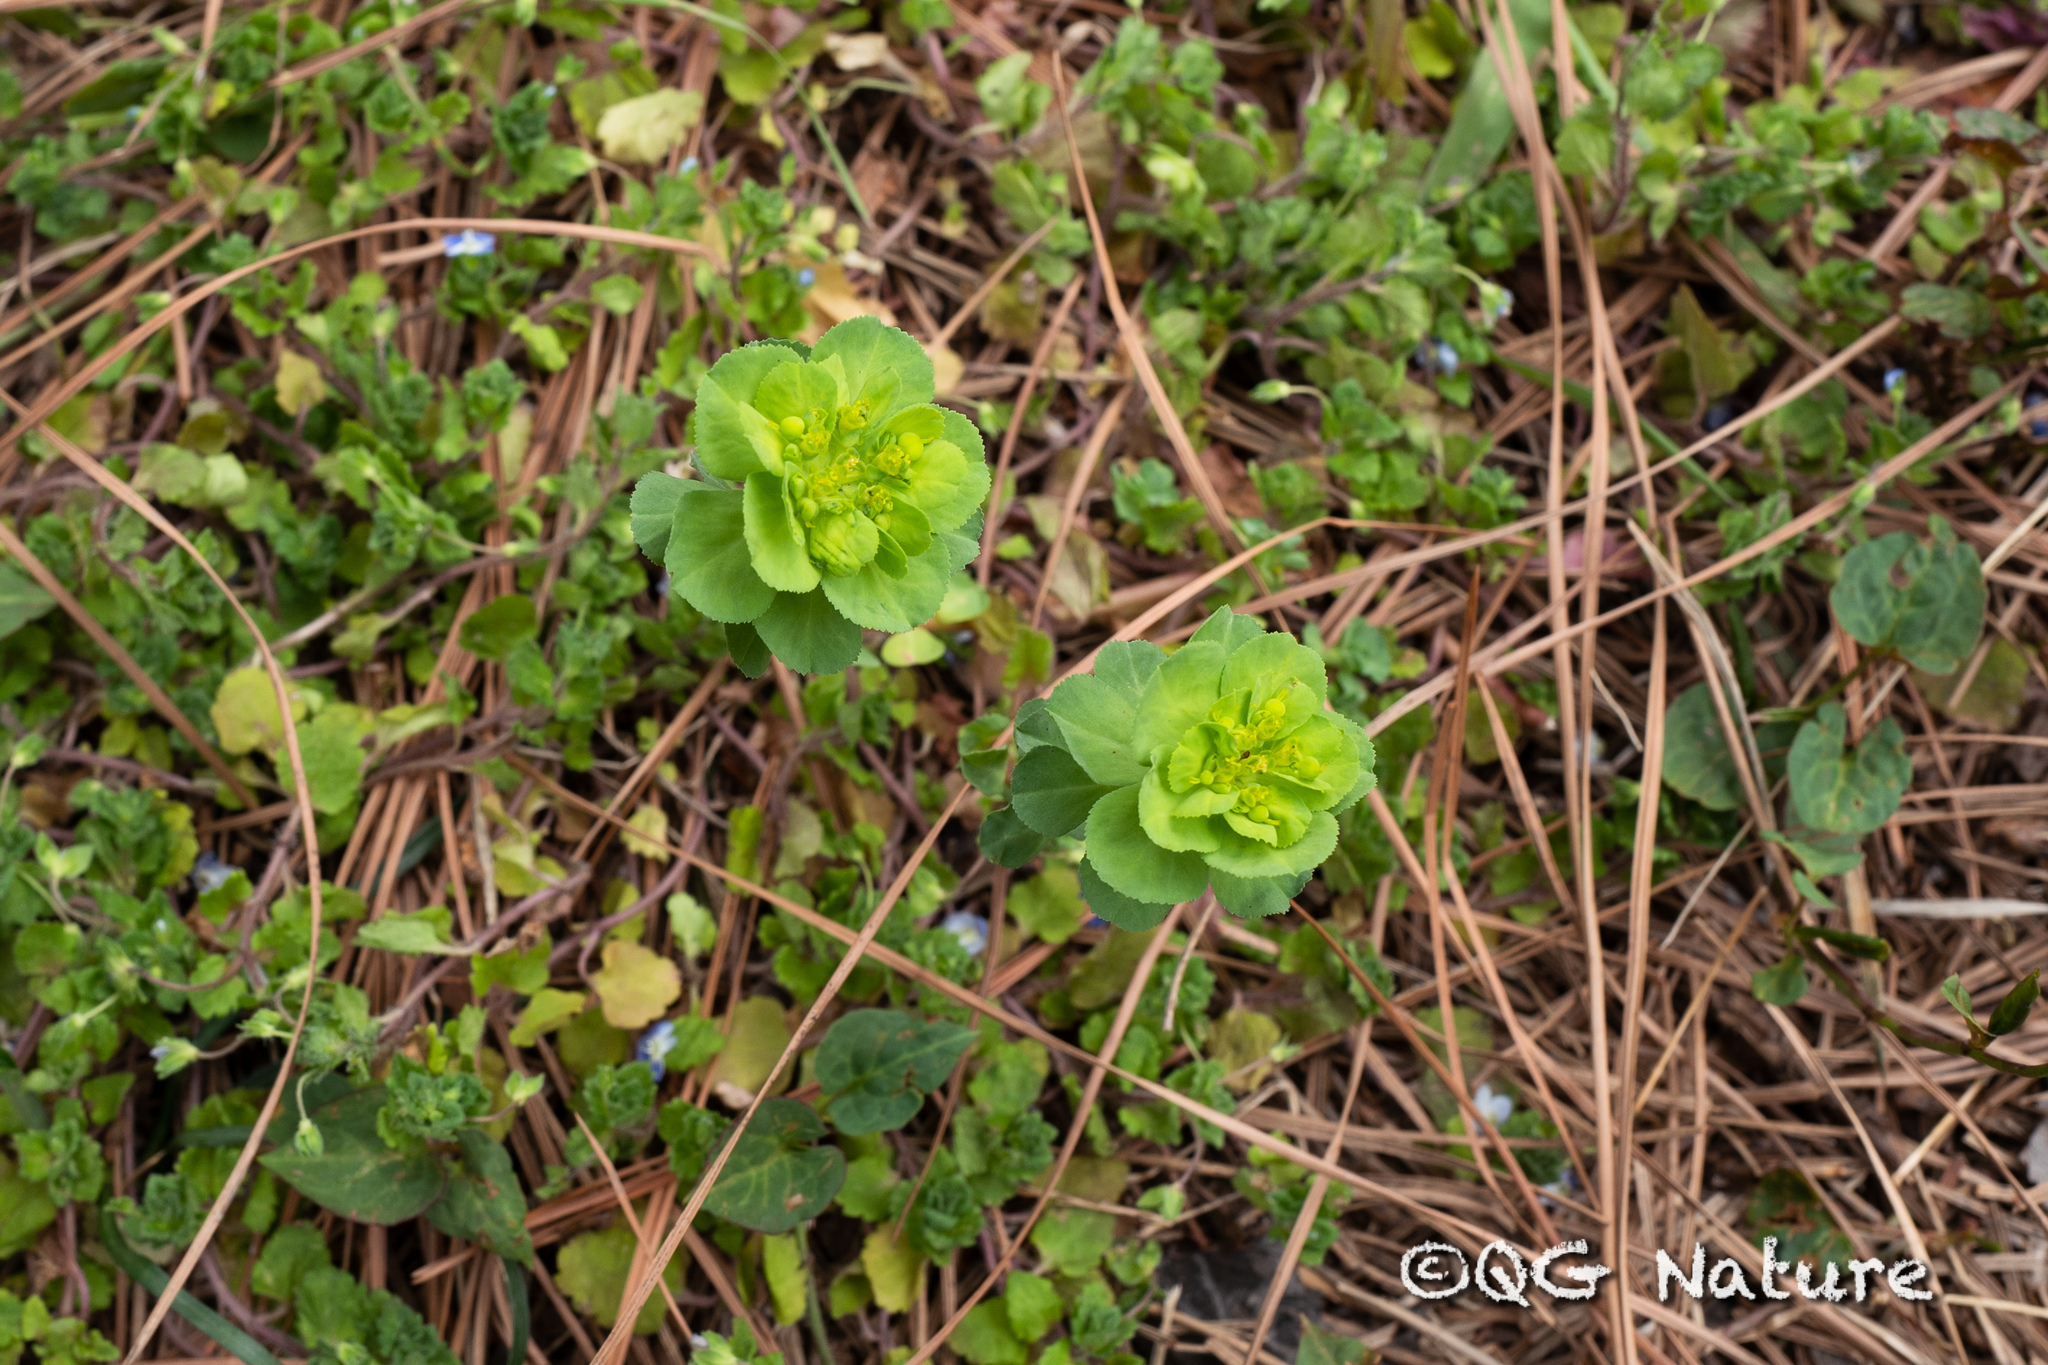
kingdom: Plantae
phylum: Tracheophyta
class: Magnoliopsida
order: Malpighiales
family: Euphorbiaceae
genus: Euphorbia
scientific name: Euphorbia helioscopia
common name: Sun spurge
